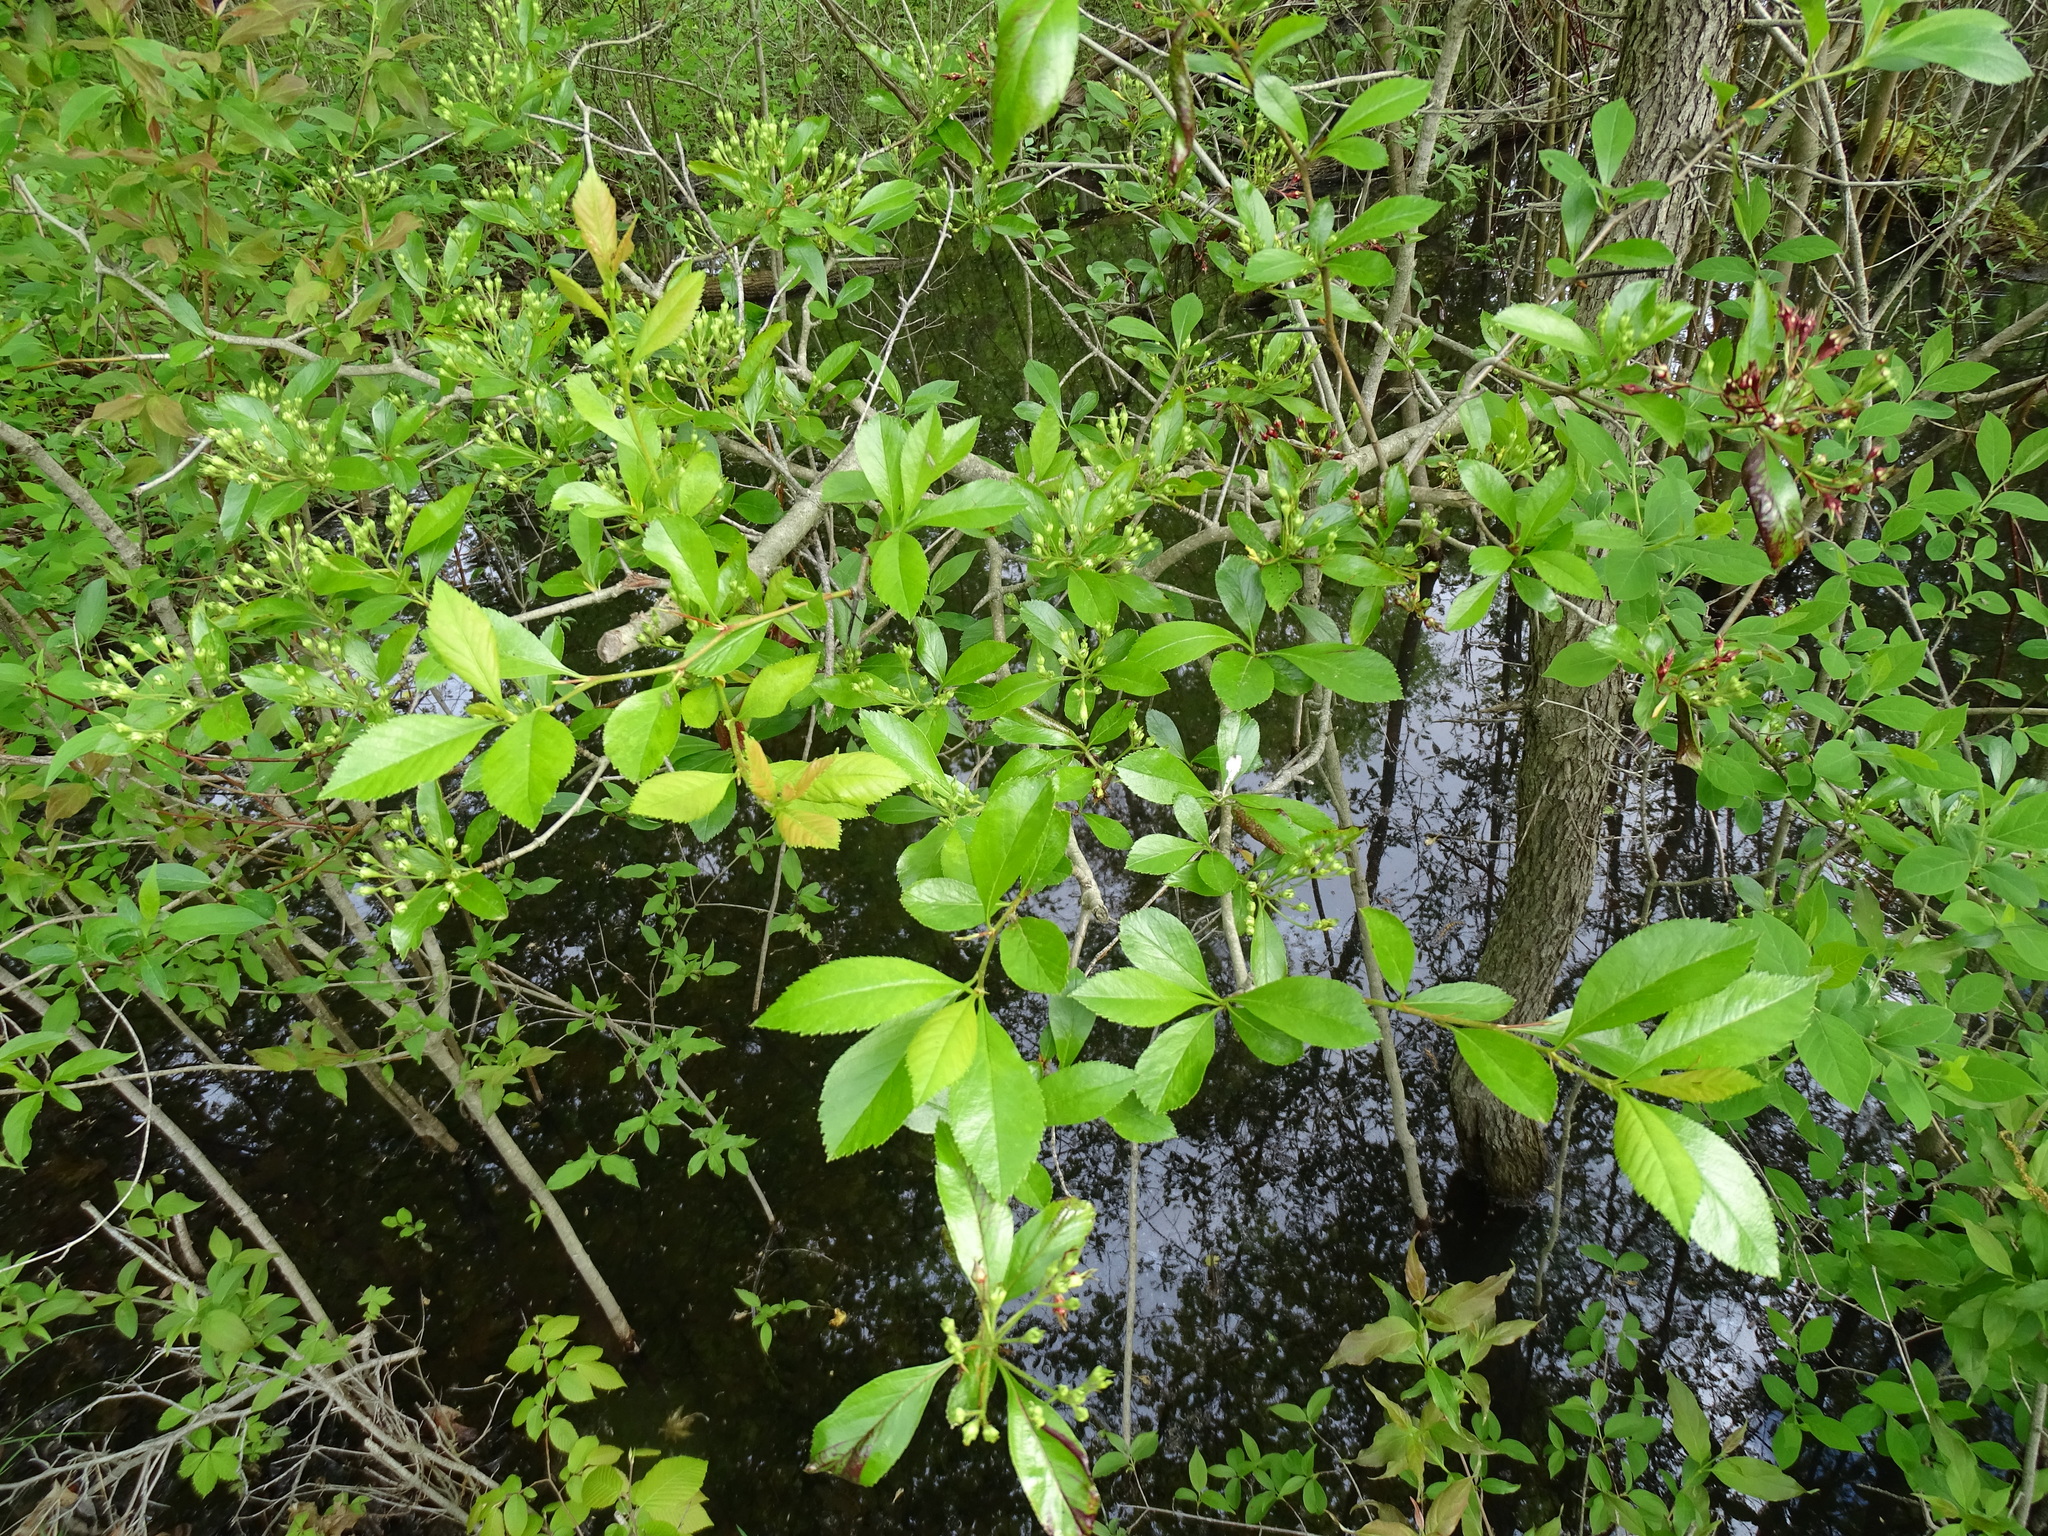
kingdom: Plantae
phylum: Tracheophyta
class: Magnoliopsida
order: Rosales
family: Rosaceae
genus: Crataegus
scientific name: Crataegus crus-galli
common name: Cockspurthorn
